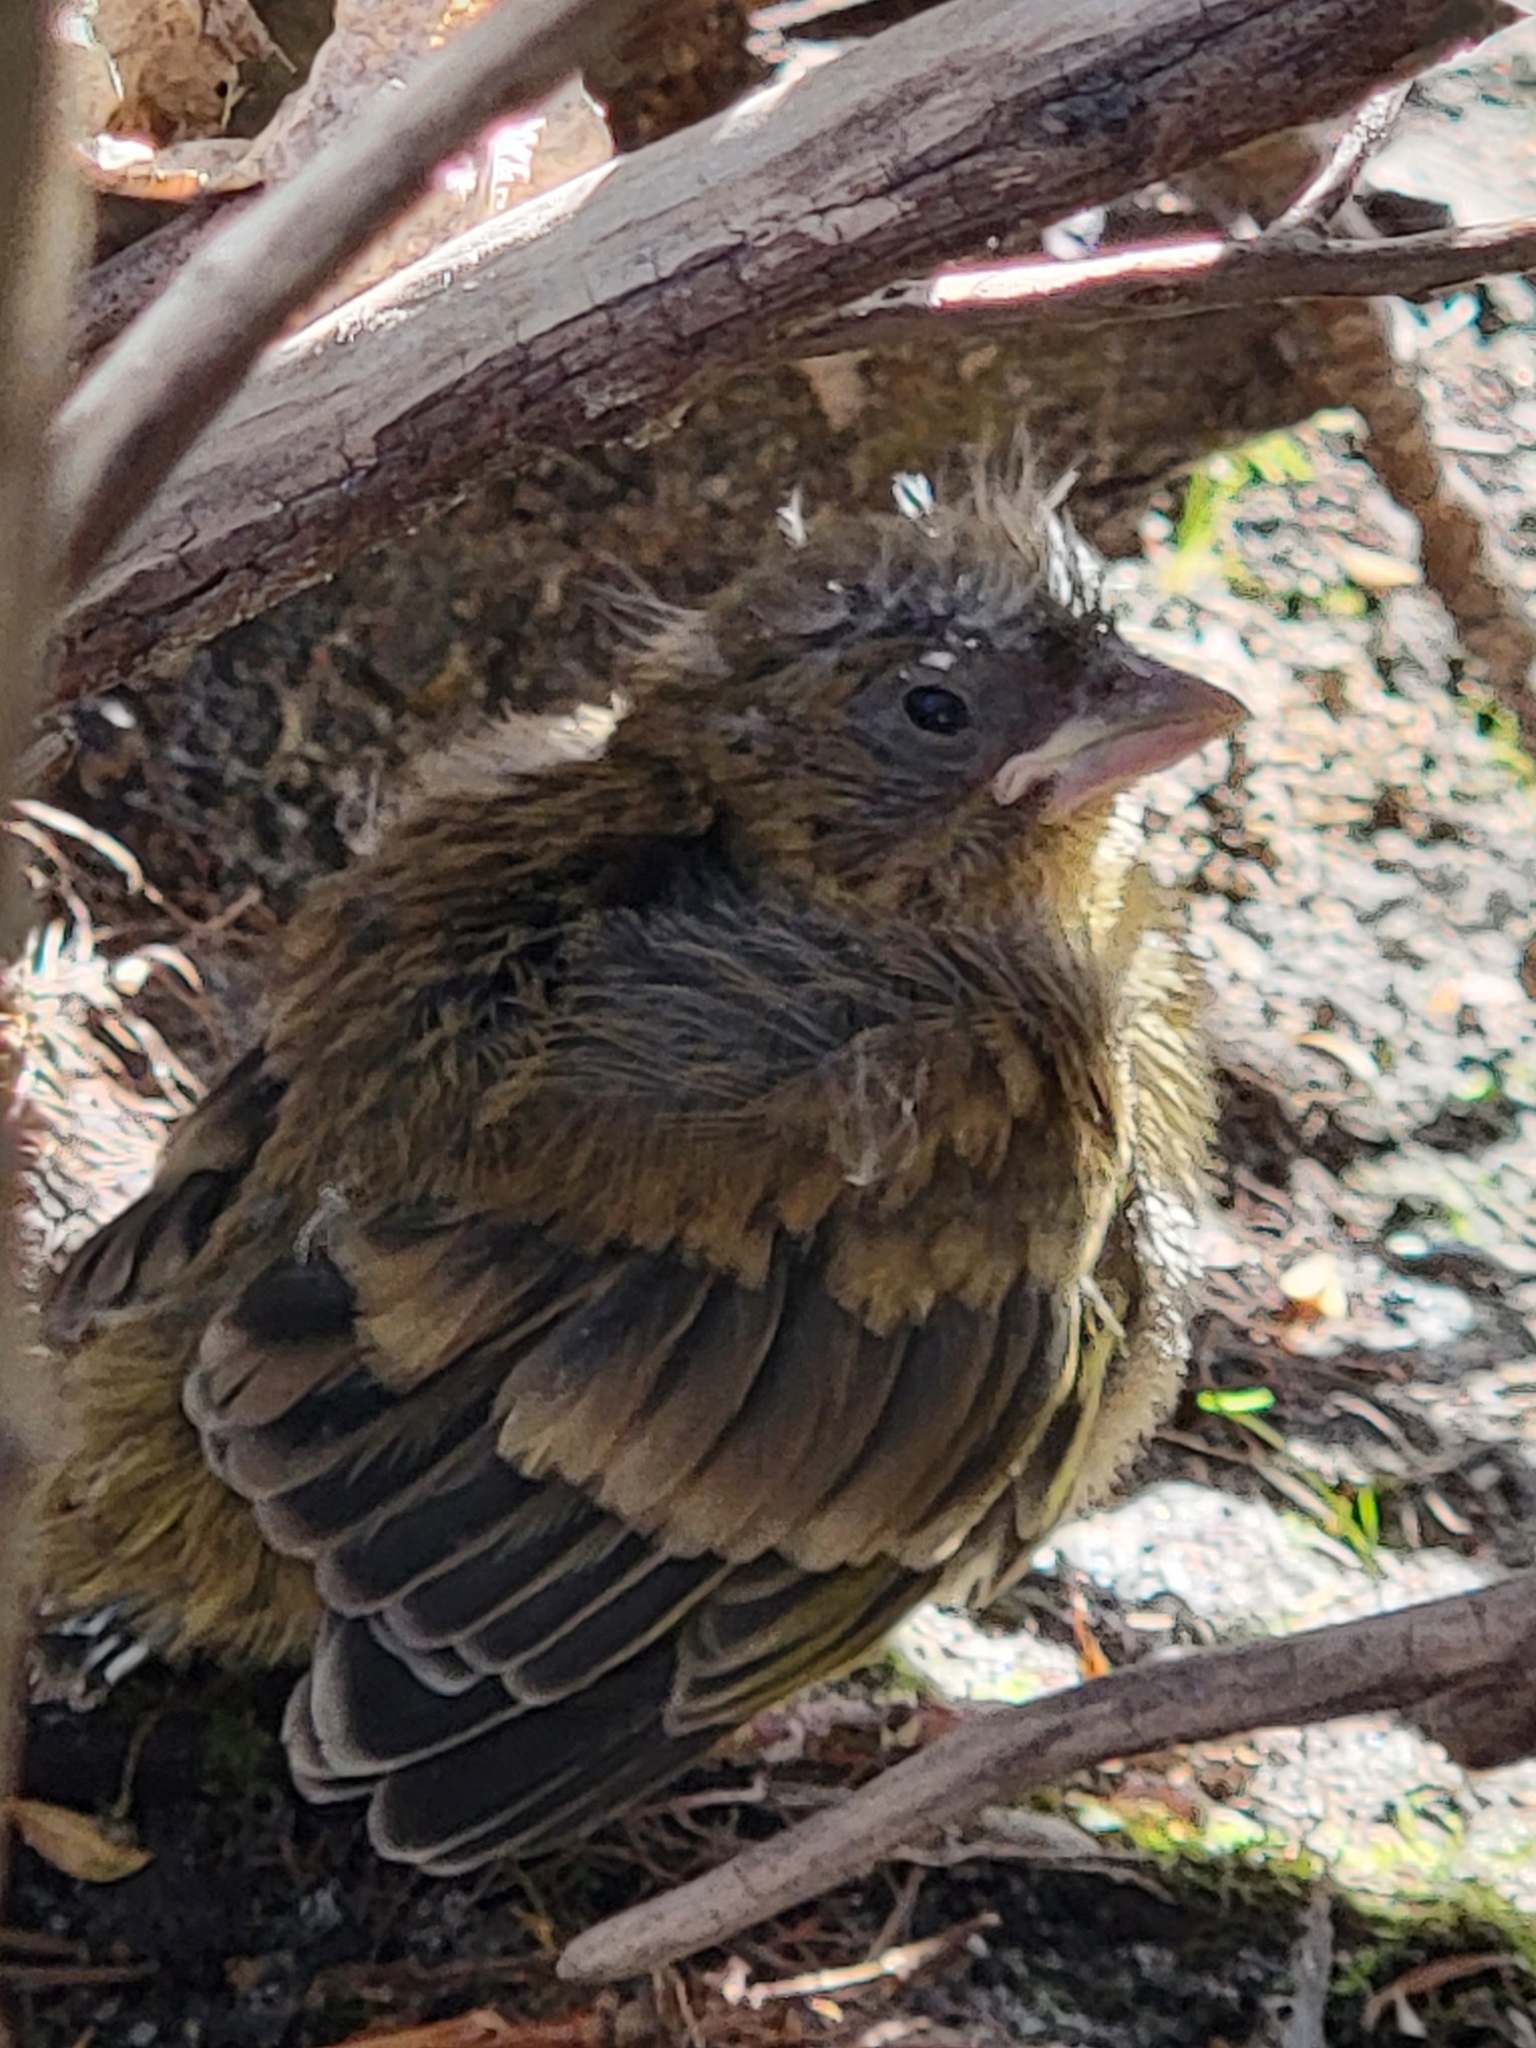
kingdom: Plantae
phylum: Tracheophyta
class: Liliopsida
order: Poales
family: Poaceae
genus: Chloris
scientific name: Chloris chloris
